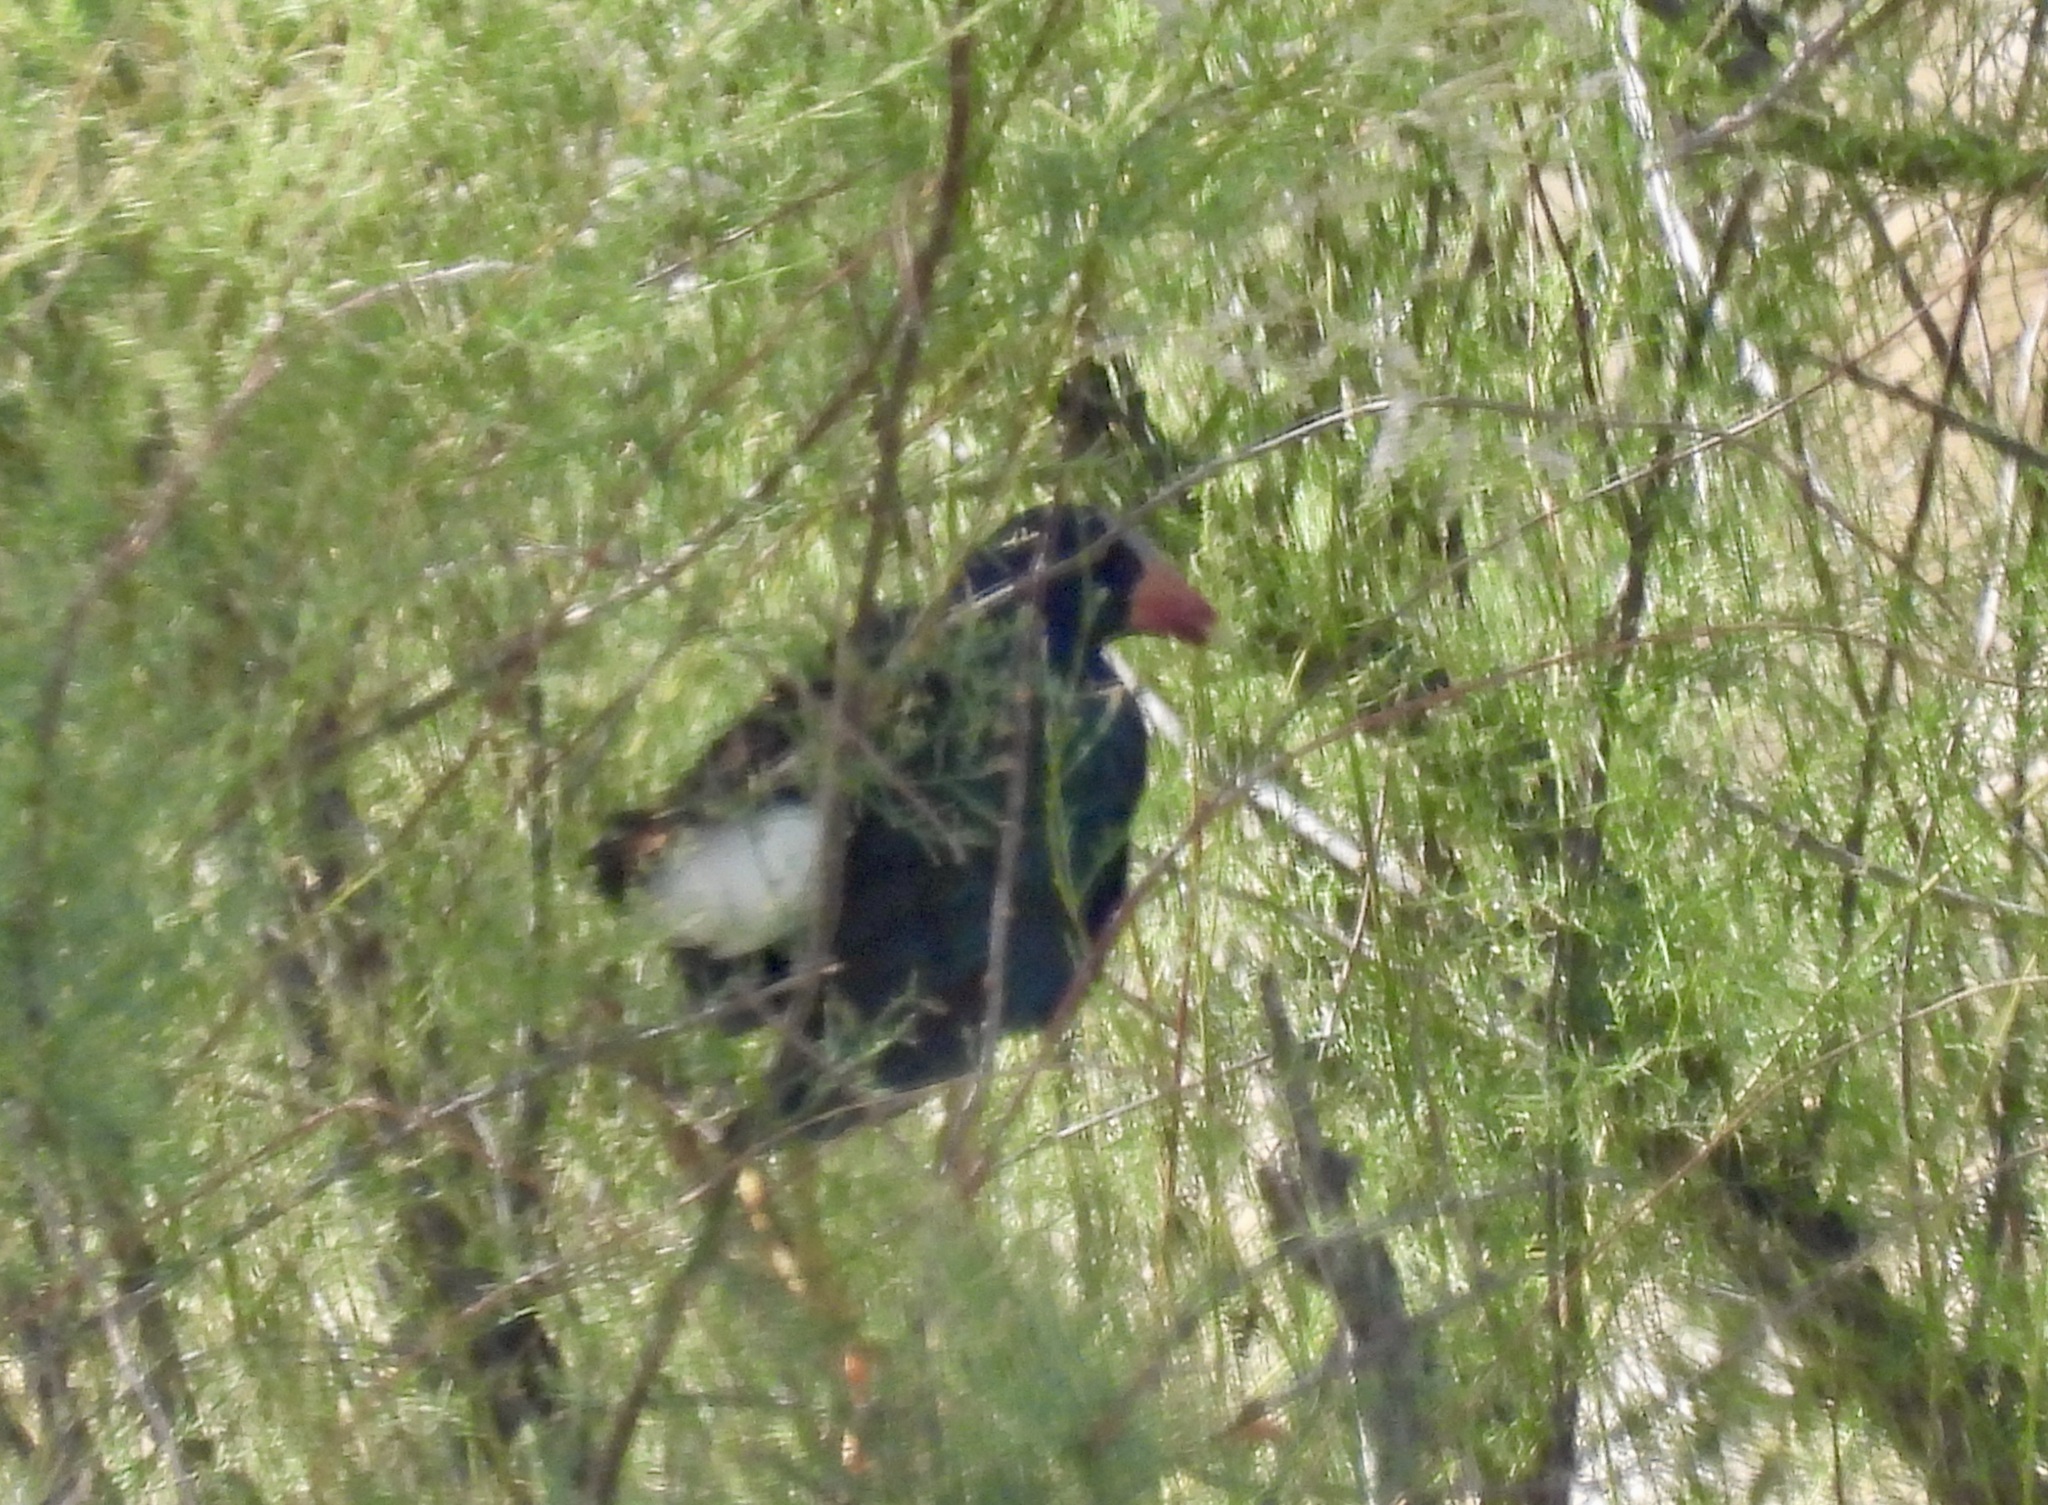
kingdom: Animalia
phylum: Chordata
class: Aves
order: Gruiformes
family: Rallidae
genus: Porphyrio
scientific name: Porphyrio martinica
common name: Purple gallinule
